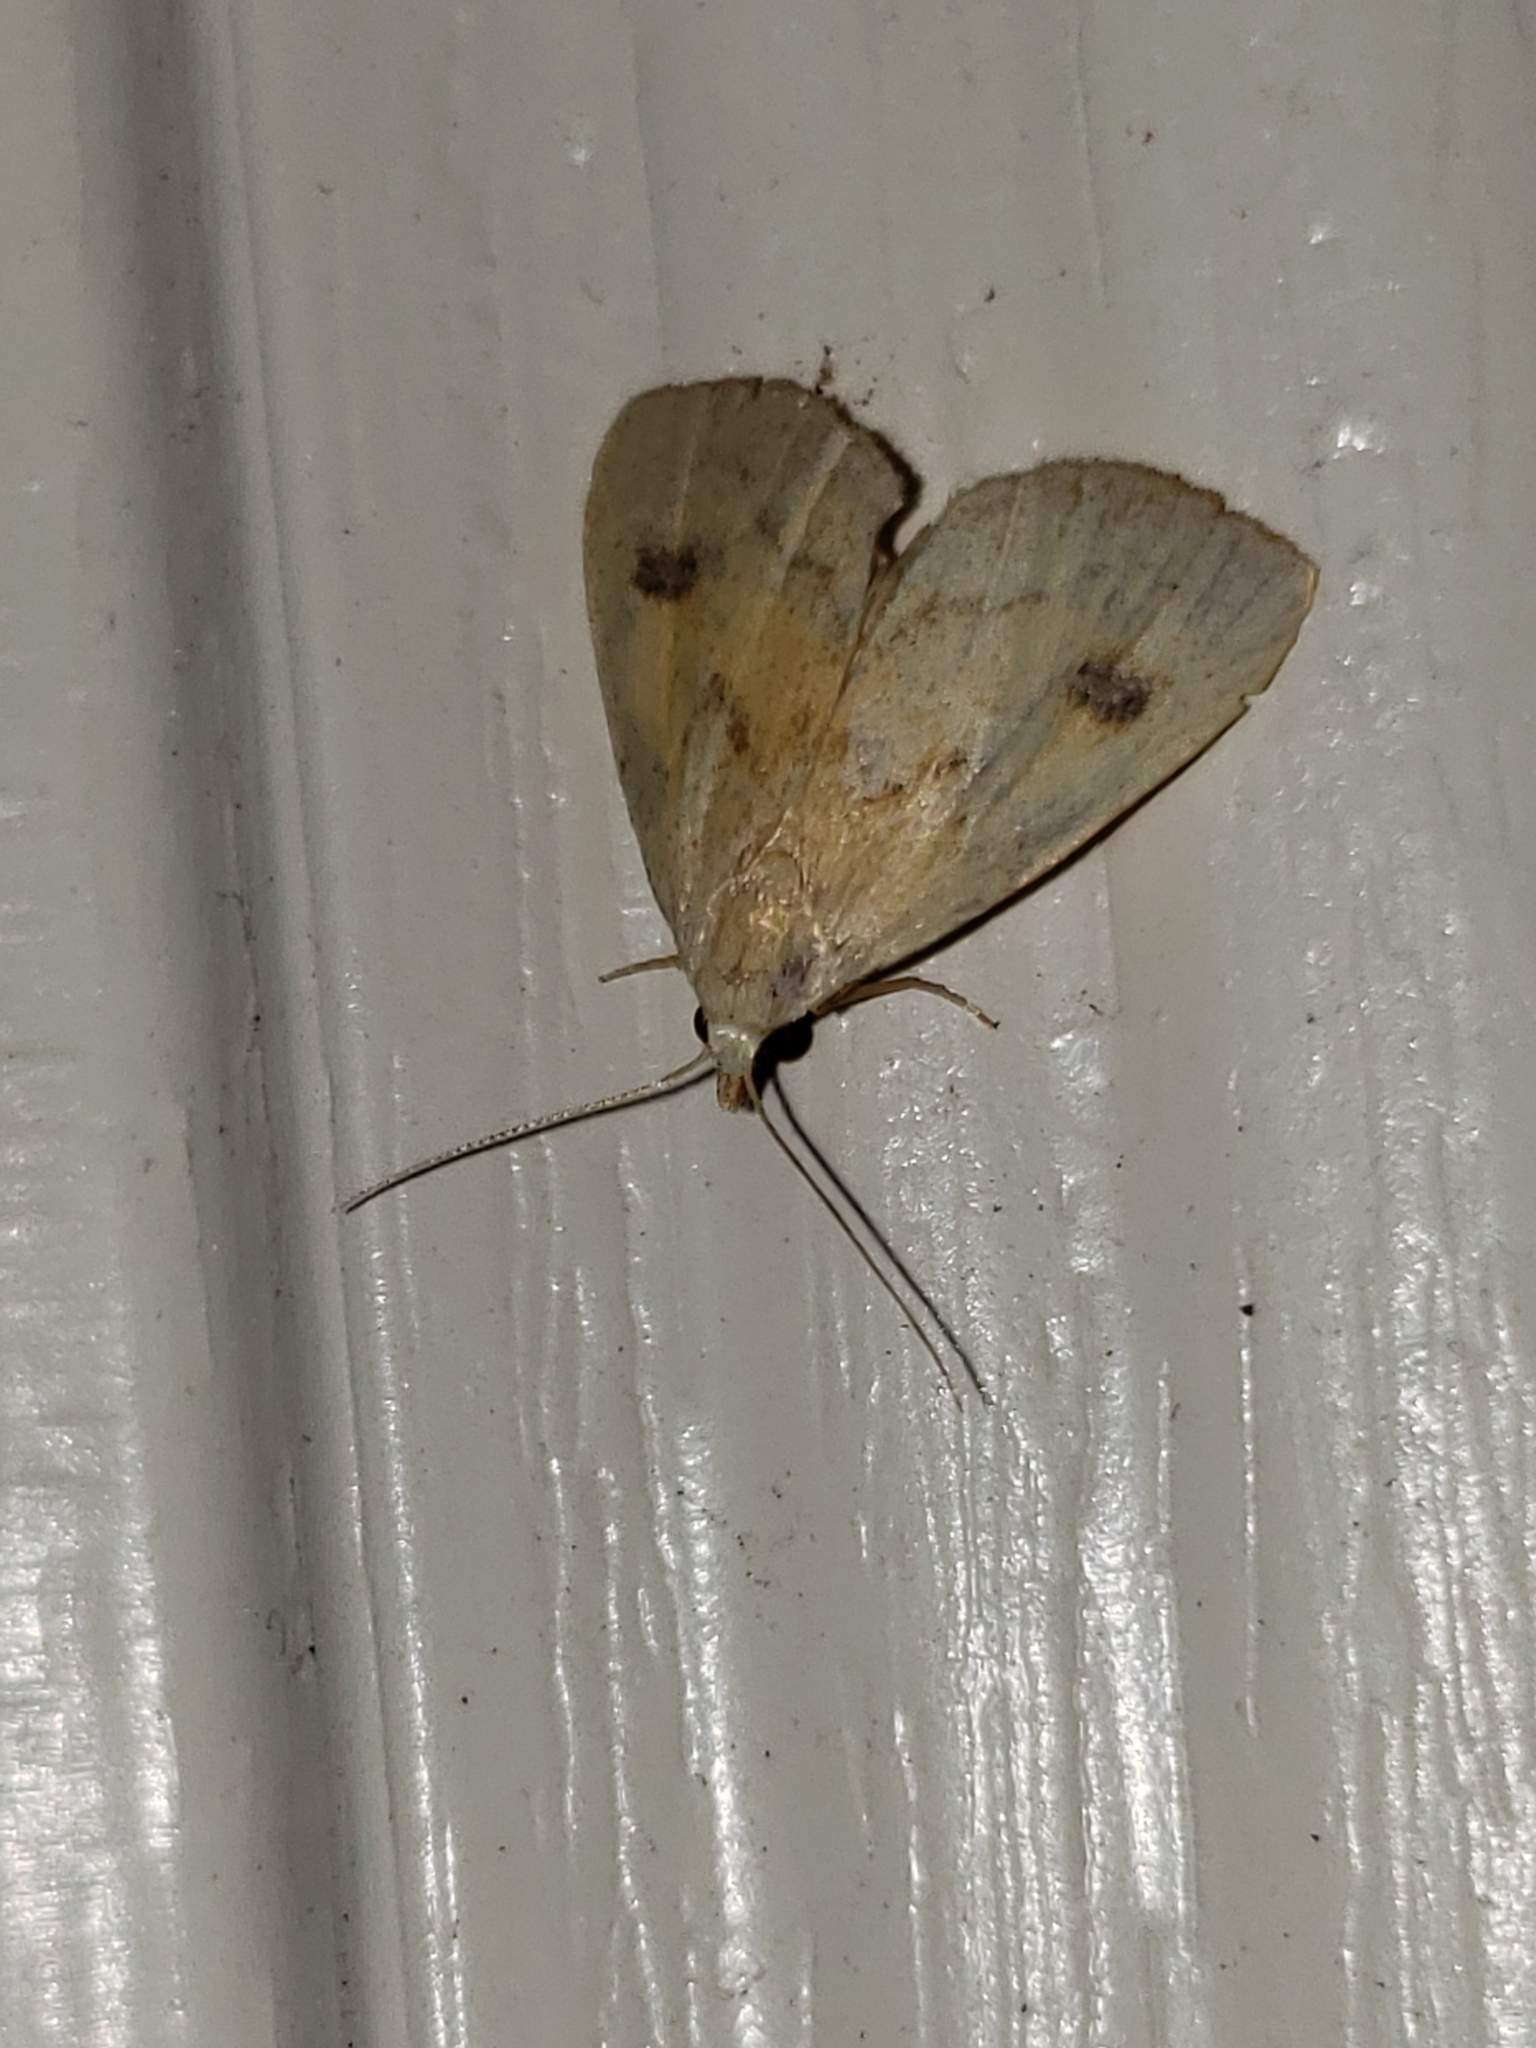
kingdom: Animalia
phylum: Arthropoda
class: Insecta
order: Lepidoptera
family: Erebidae
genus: Rivula
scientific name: Rivula propinqualis
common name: Spotted grass moth
